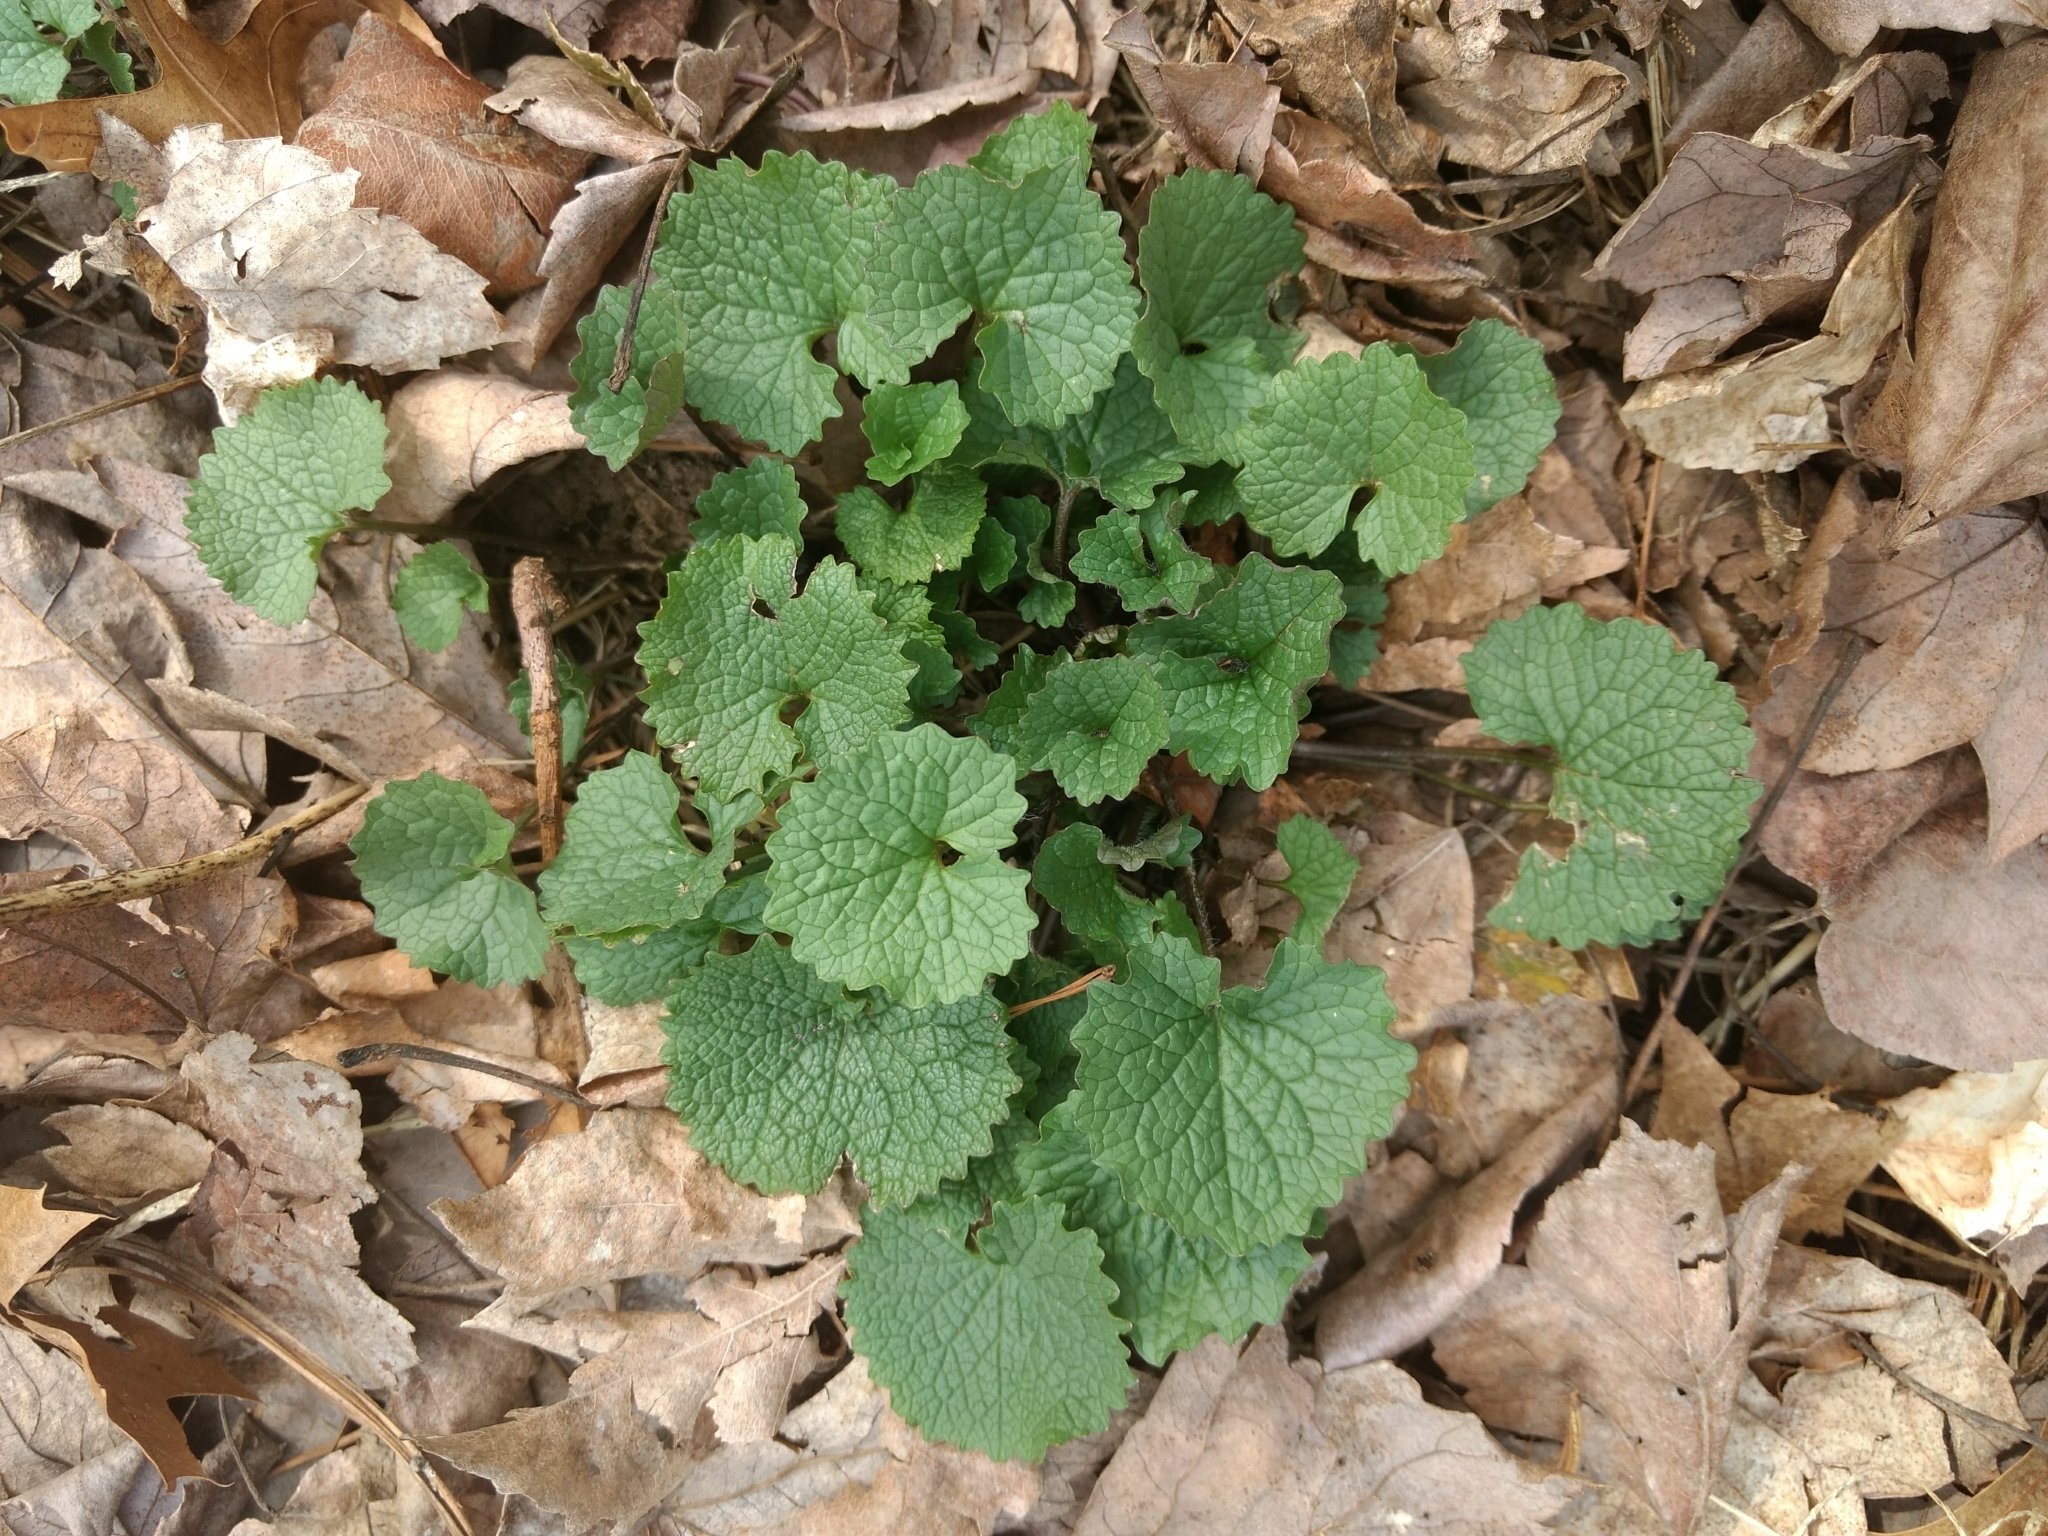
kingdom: Plantae
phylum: Tracheophyta
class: Magnoliopsida
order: Brassicales
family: Brassicaceae
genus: Alliaria
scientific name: Alliaria petiolata
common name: Garlic mustard
